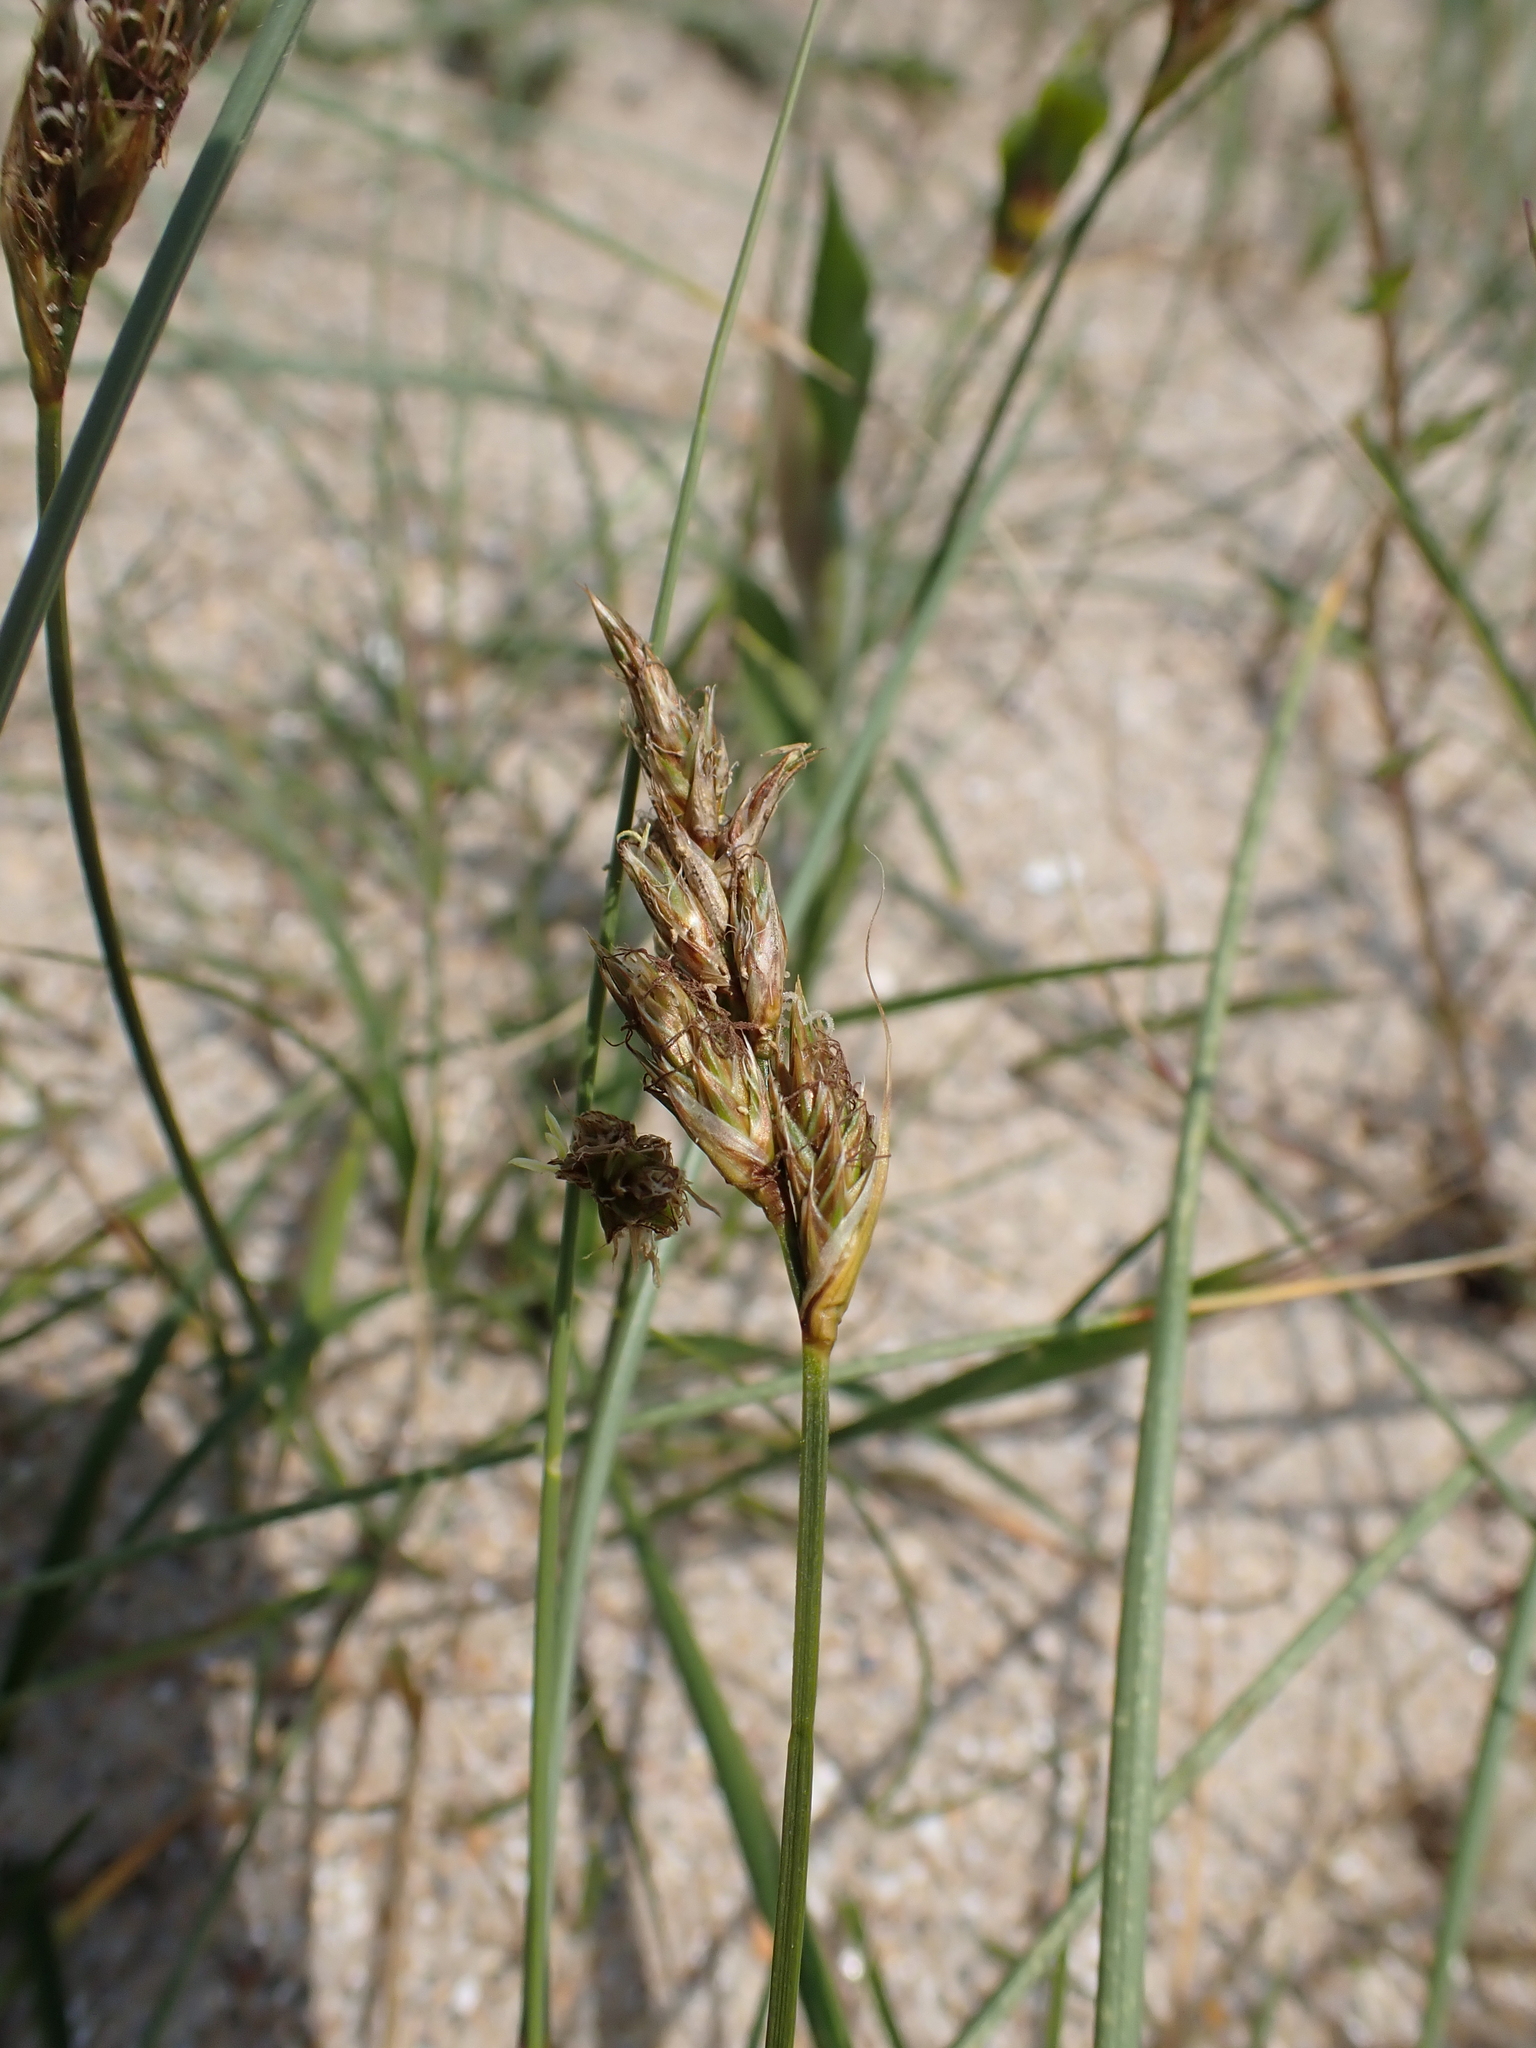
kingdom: Plantae
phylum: Tracheophyta
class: Liliopsida
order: Poales
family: Cyperaceae
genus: Carex
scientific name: Carex arenaria
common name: Sand sedge
